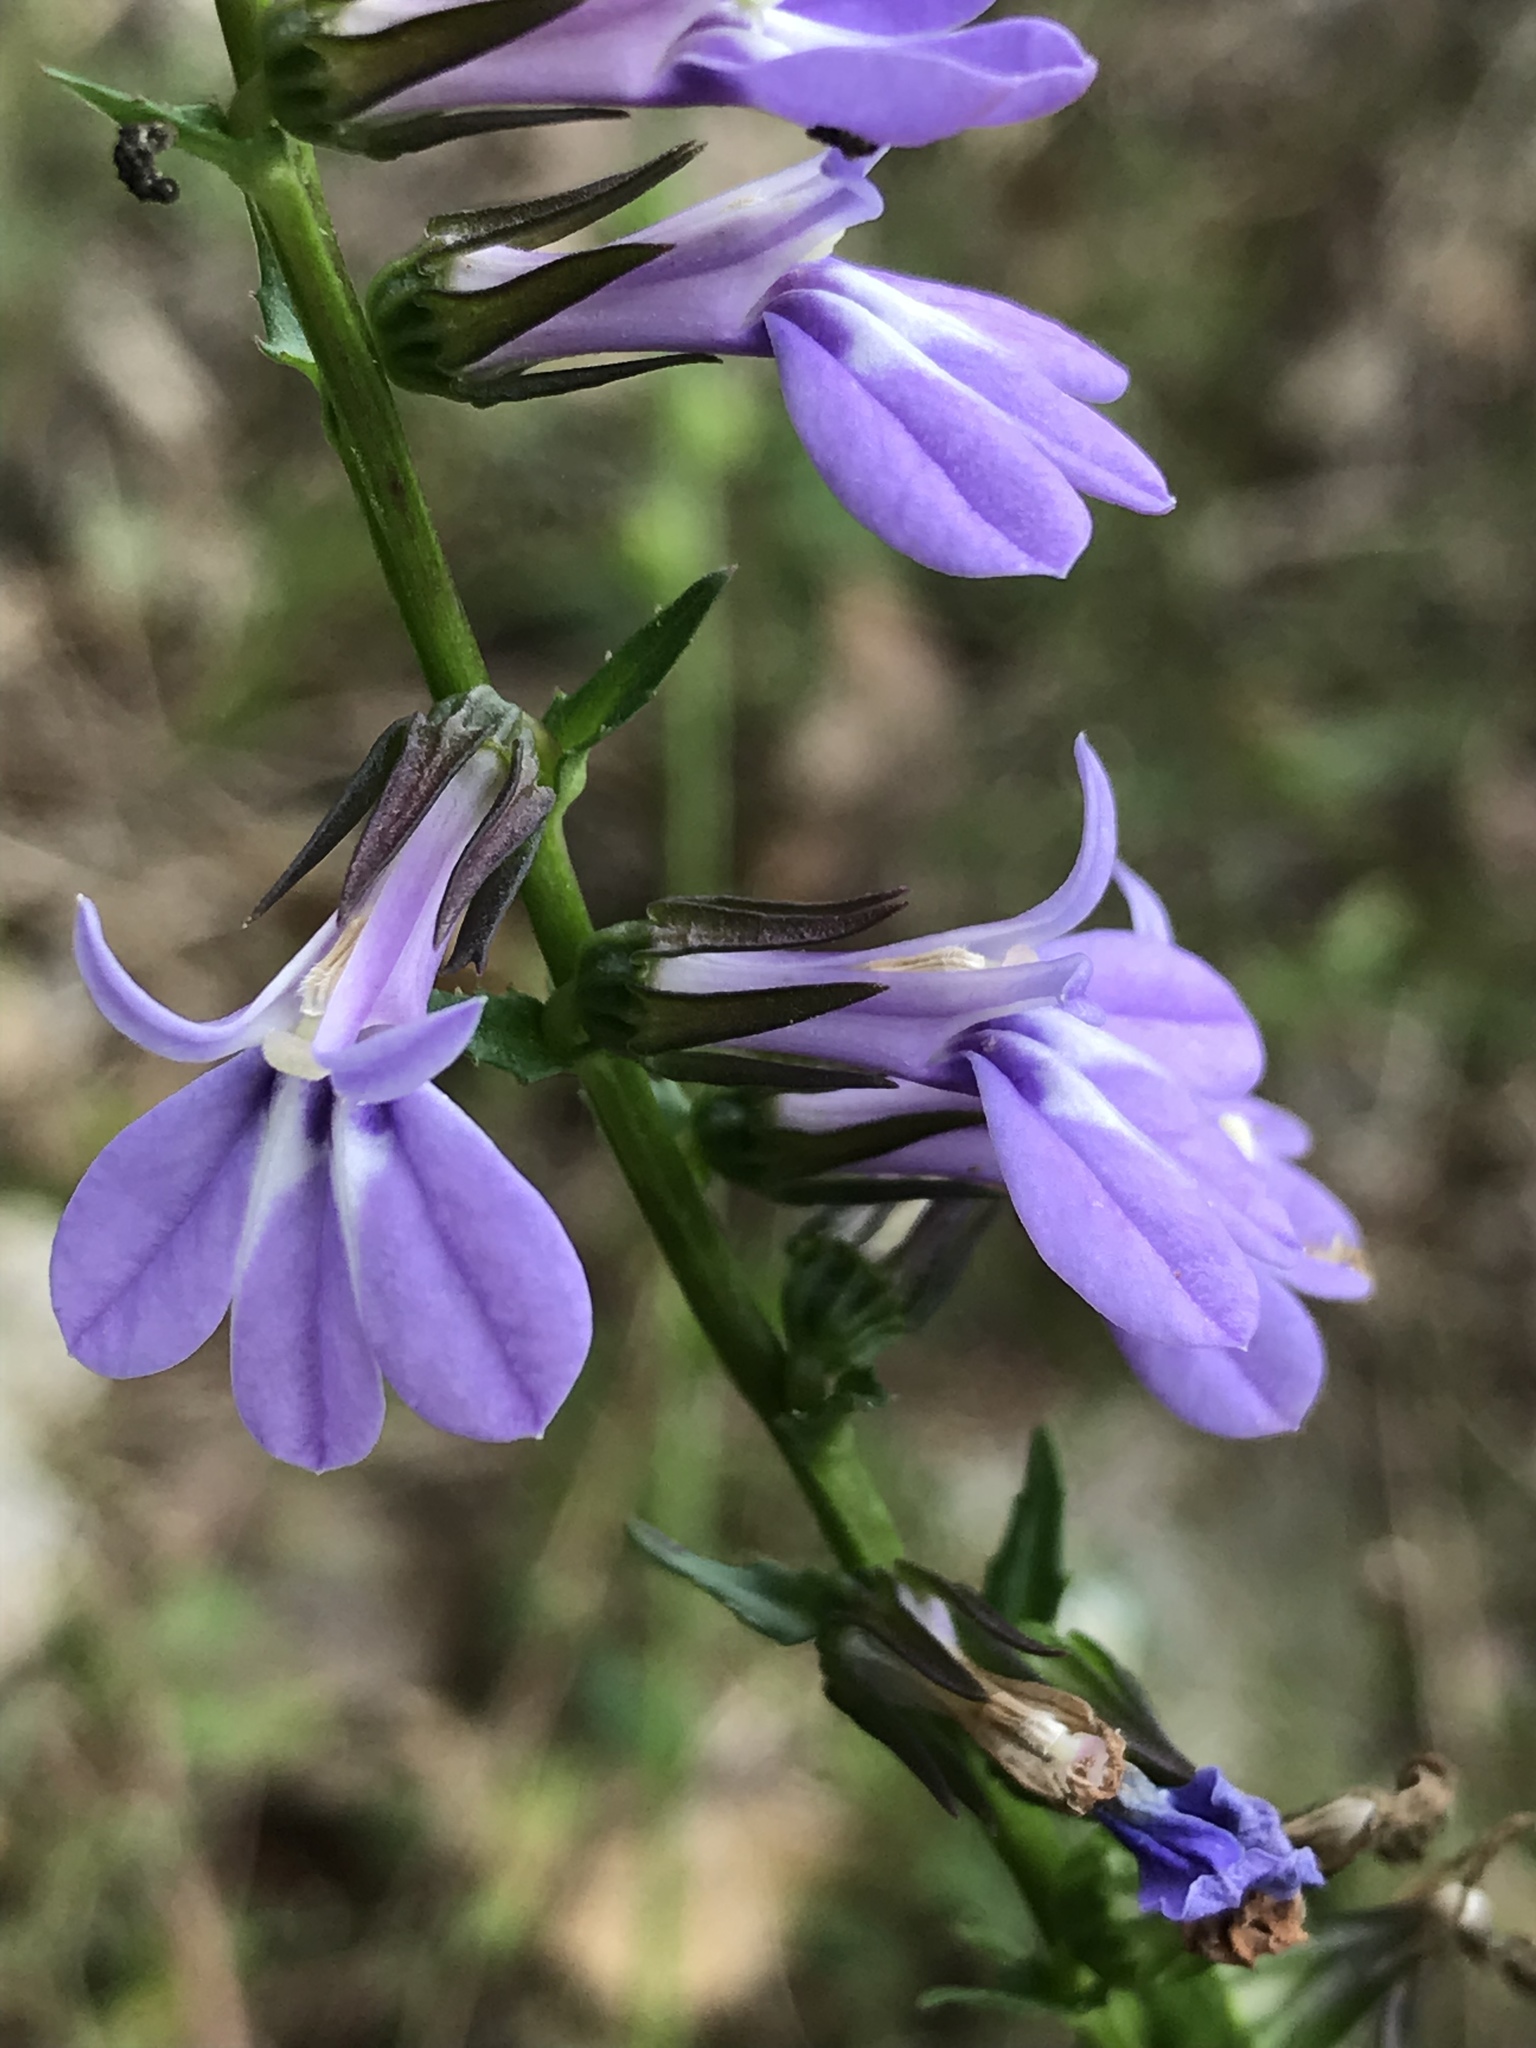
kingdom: Plantae
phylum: Tracheophyta
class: Magnoliopsida
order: Asterales
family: Campanulaceae
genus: Lobelia
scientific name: Lobelia puberula
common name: Purple dewdrop
